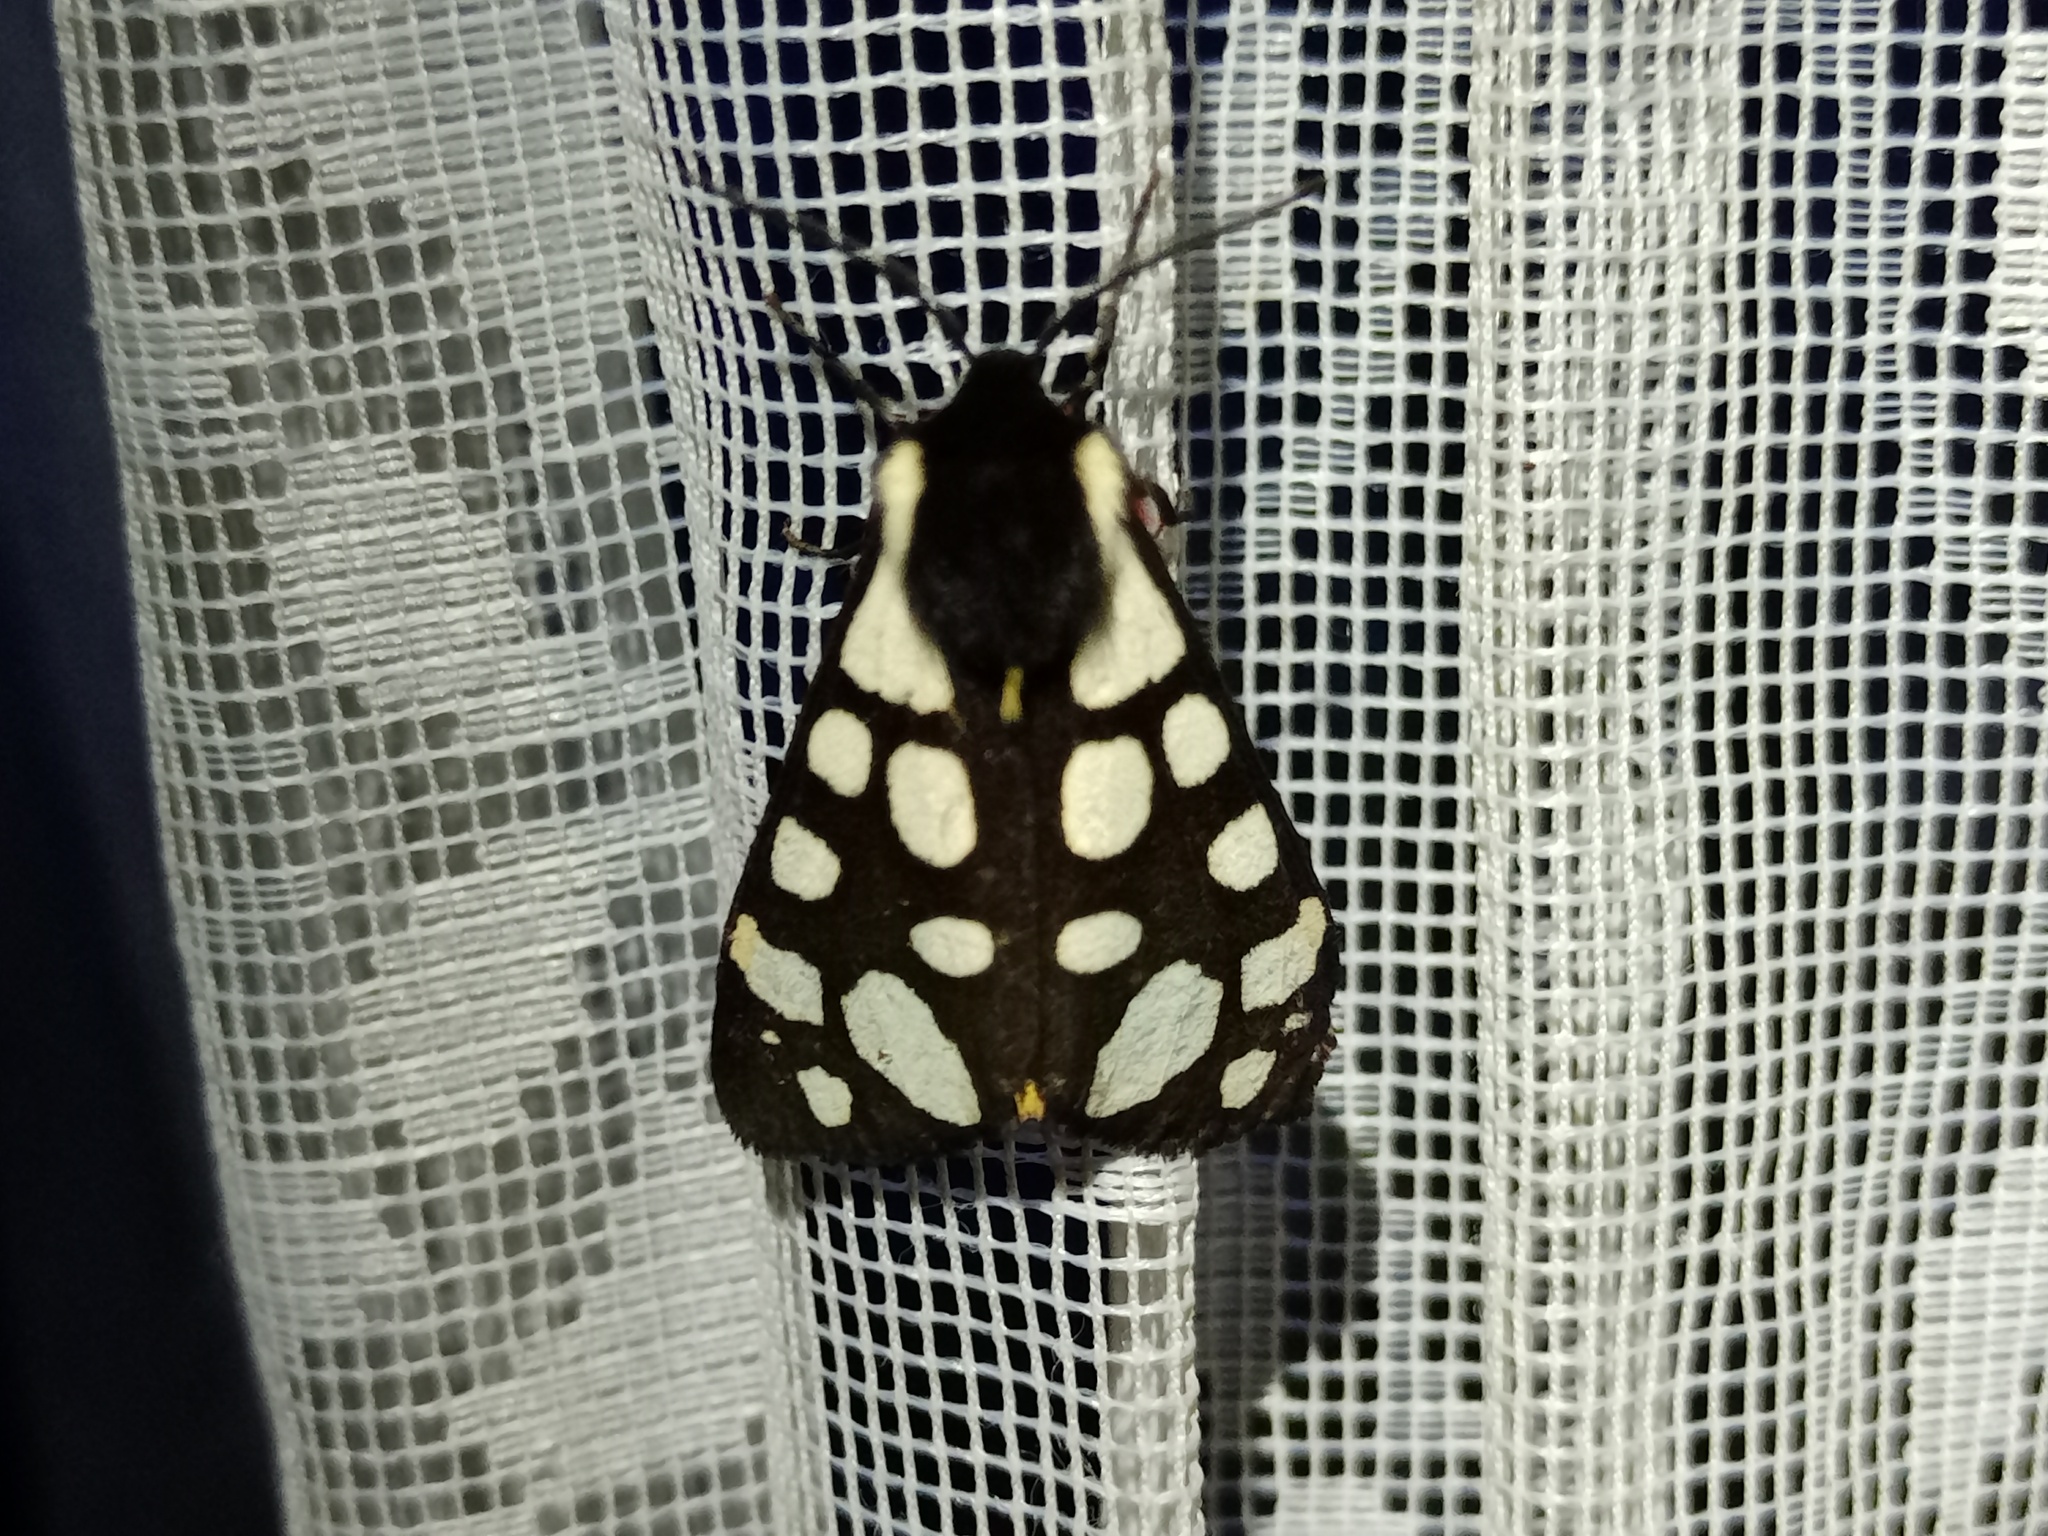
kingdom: Animalia
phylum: Arthropoda
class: Insecta
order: Lepidoptera
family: Erebidae
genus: Epicallia
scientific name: Epicallia villica
